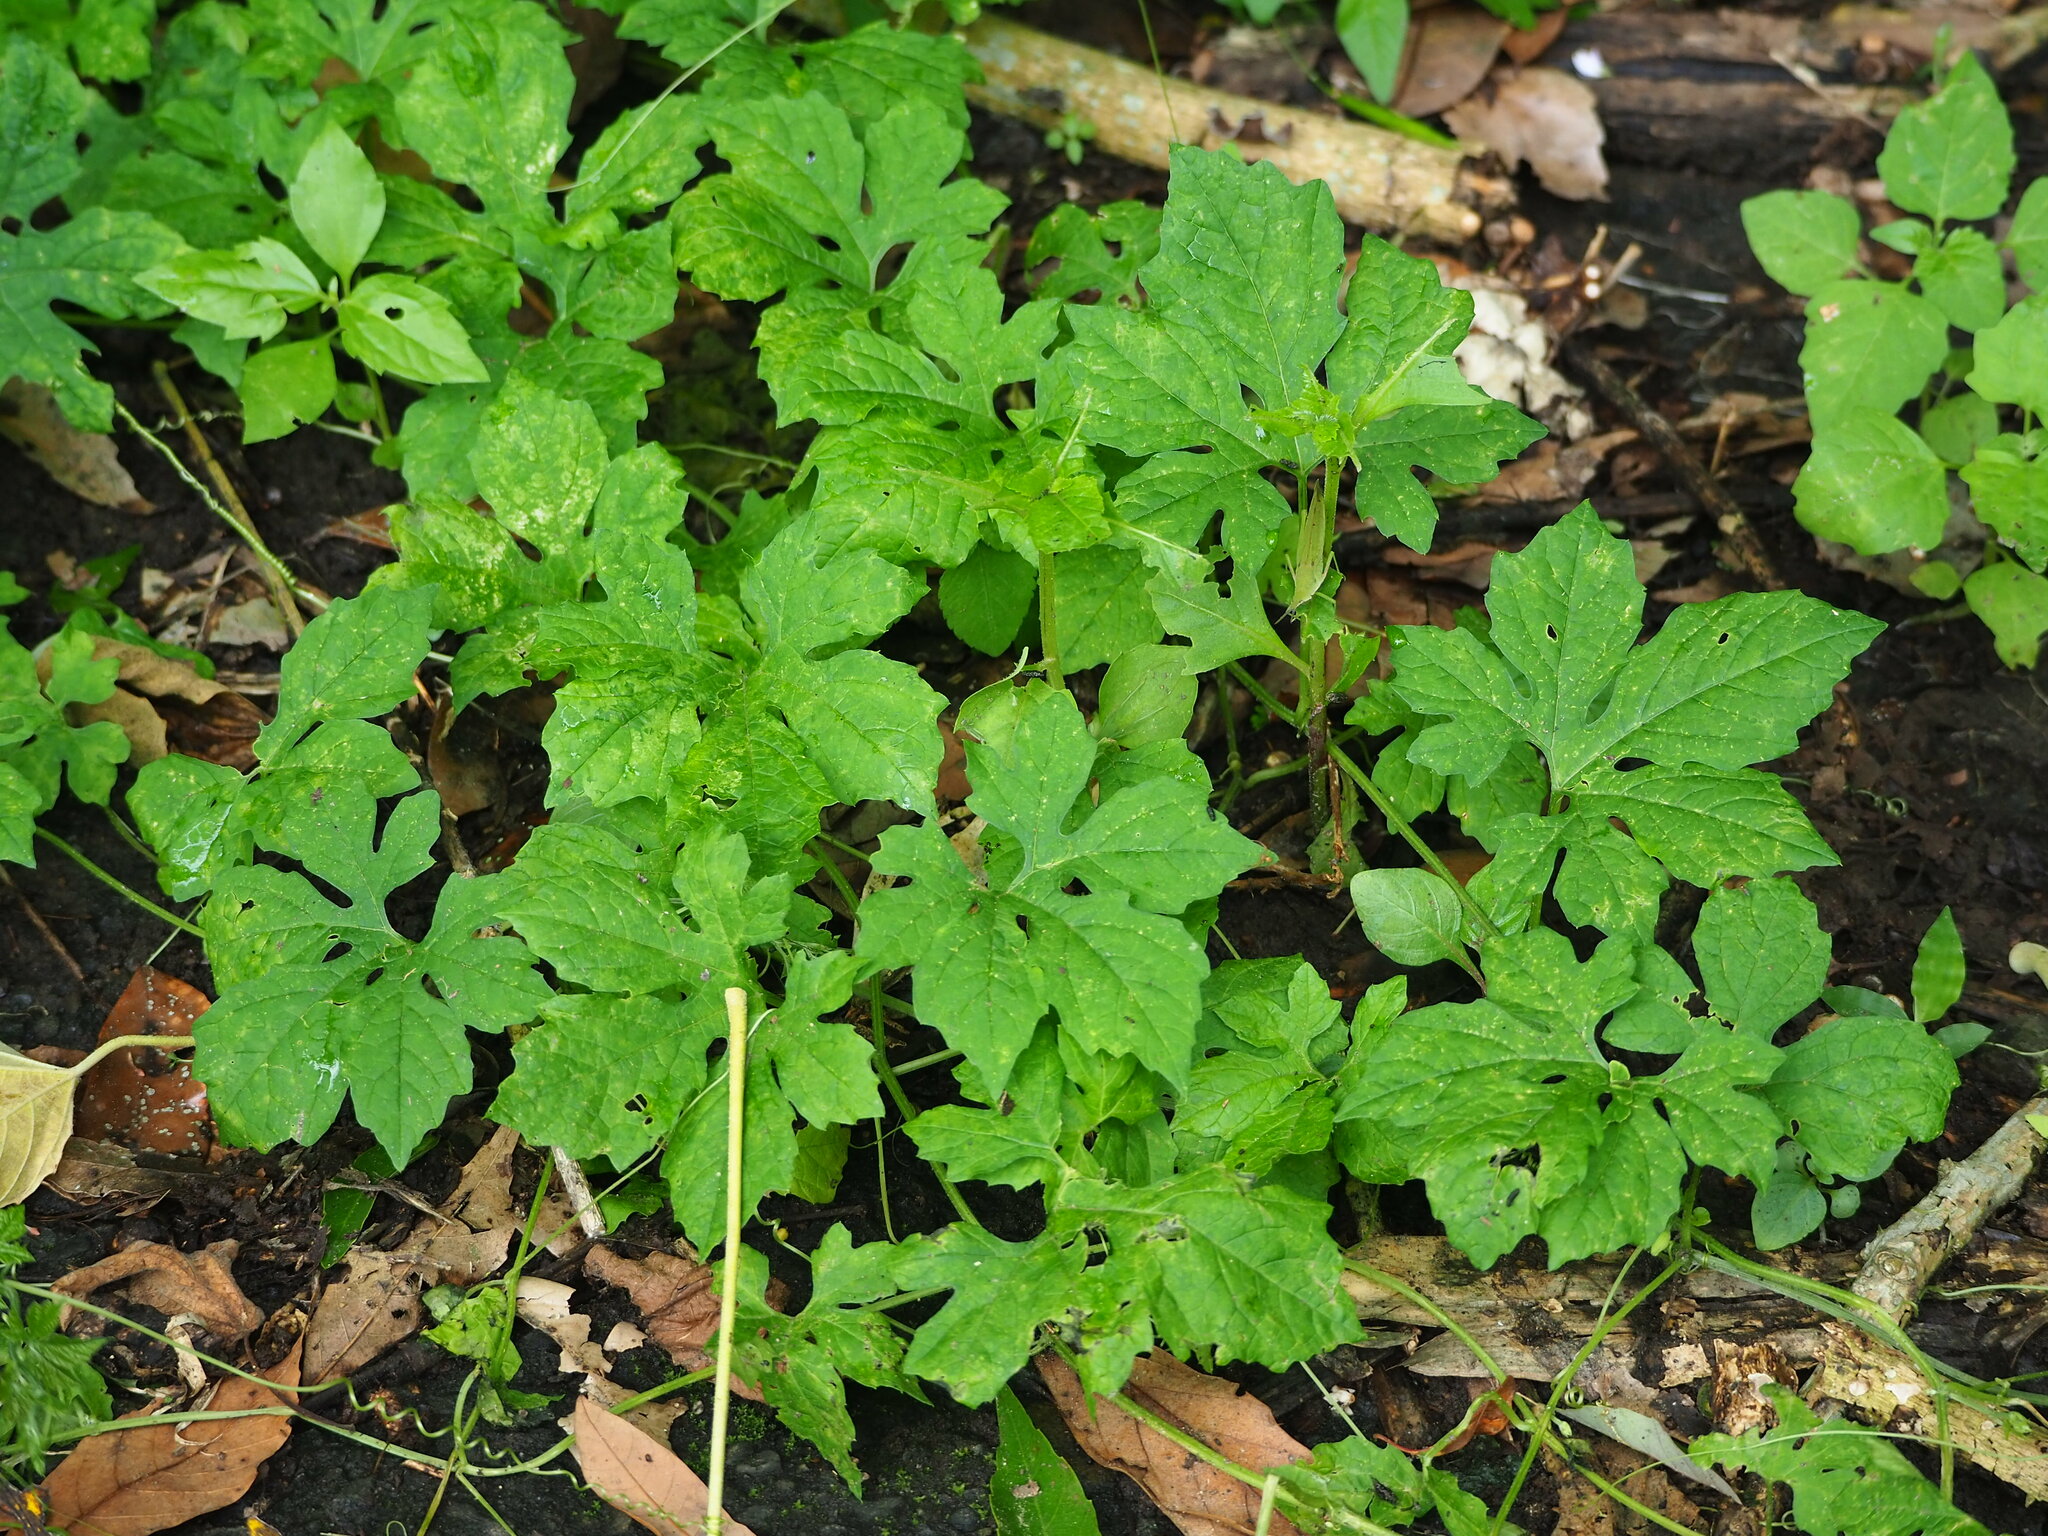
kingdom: Plantae
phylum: Tracheophyta
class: Magnoliopsida
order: Cucurbitales
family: Cucurbitaceae
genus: Momordica
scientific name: Momordica charantia
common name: Balsampear
